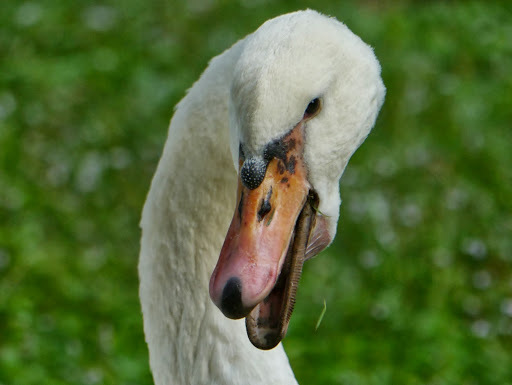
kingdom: Animalia
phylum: Chordata
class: Aves
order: Anseriformes
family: Anatidae
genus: Cygnus
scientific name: Cygnus olor
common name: Mute swan
